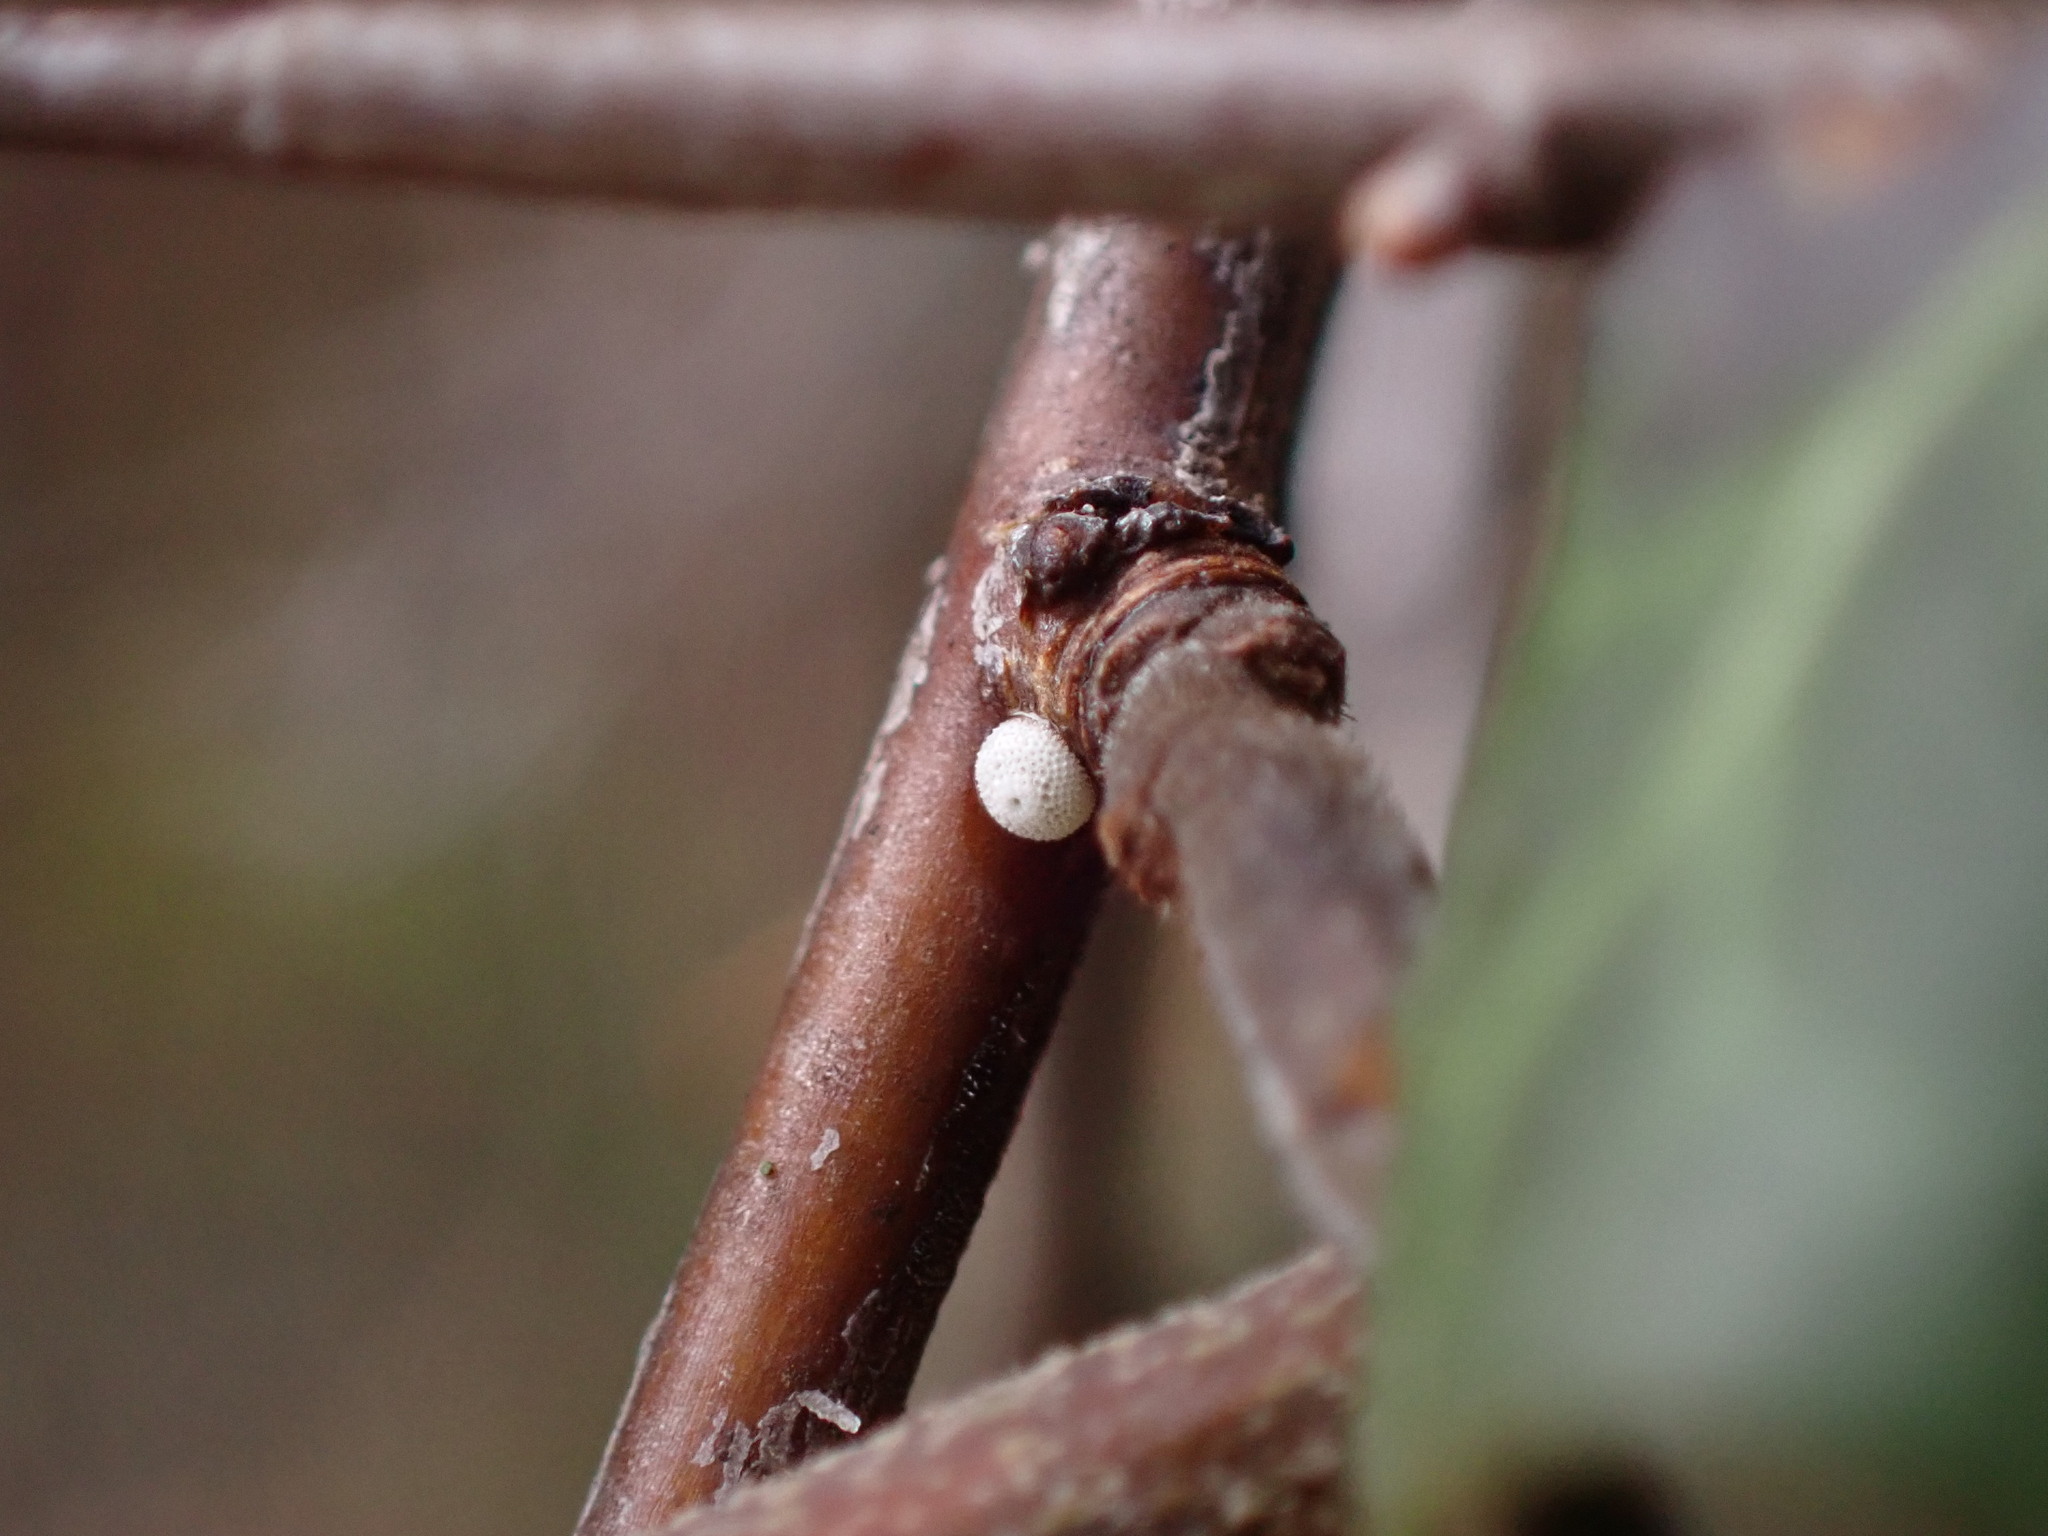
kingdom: Animalia
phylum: Arthropoda
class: Insecta
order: Lepidoptera
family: Lycaenidae
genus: Thecla
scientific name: Thecla betulae
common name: Brown hairstreak
